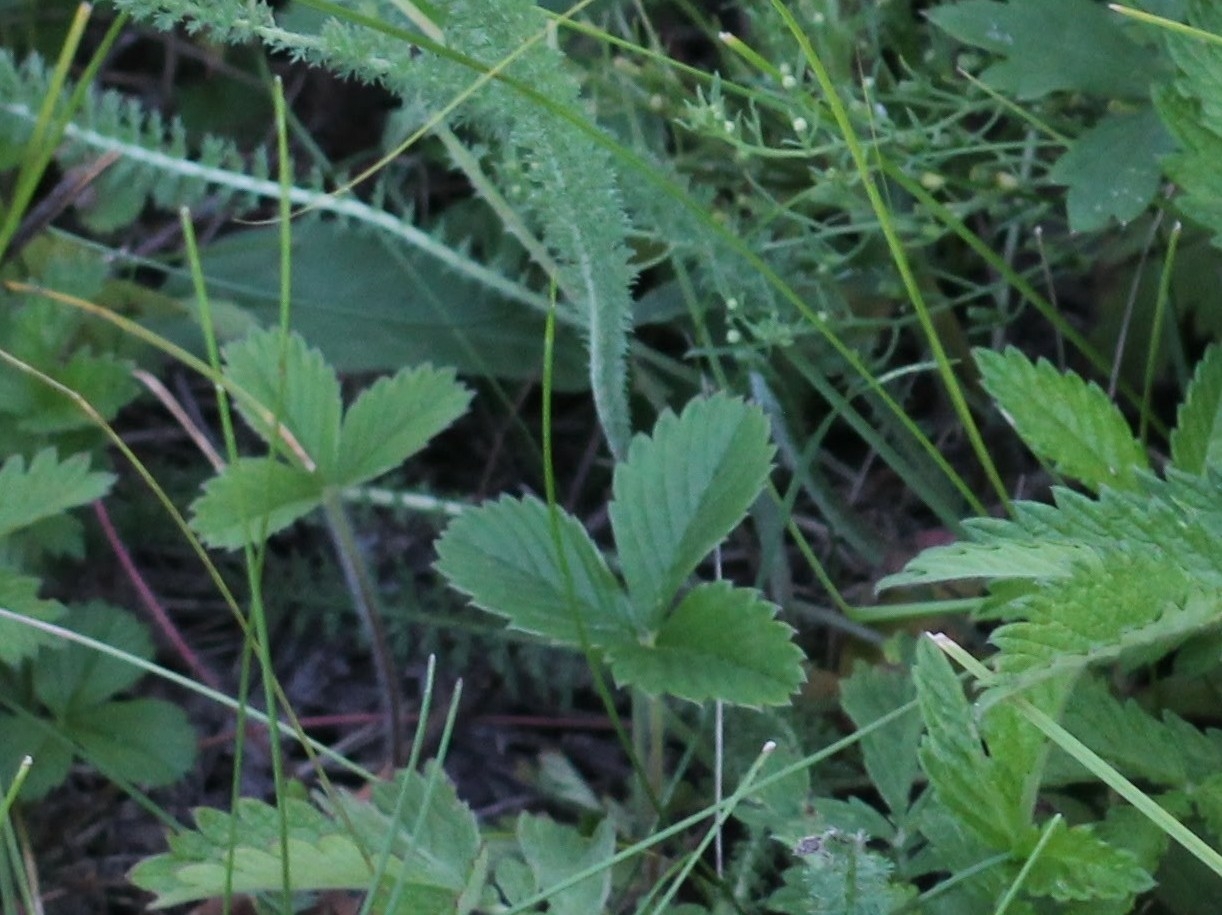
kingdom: Plantae
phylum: Tracheophyta
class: Magnoliopsida
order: Rosales
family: Rosaceae
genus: Fragaria
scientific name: Fragaria viridis
